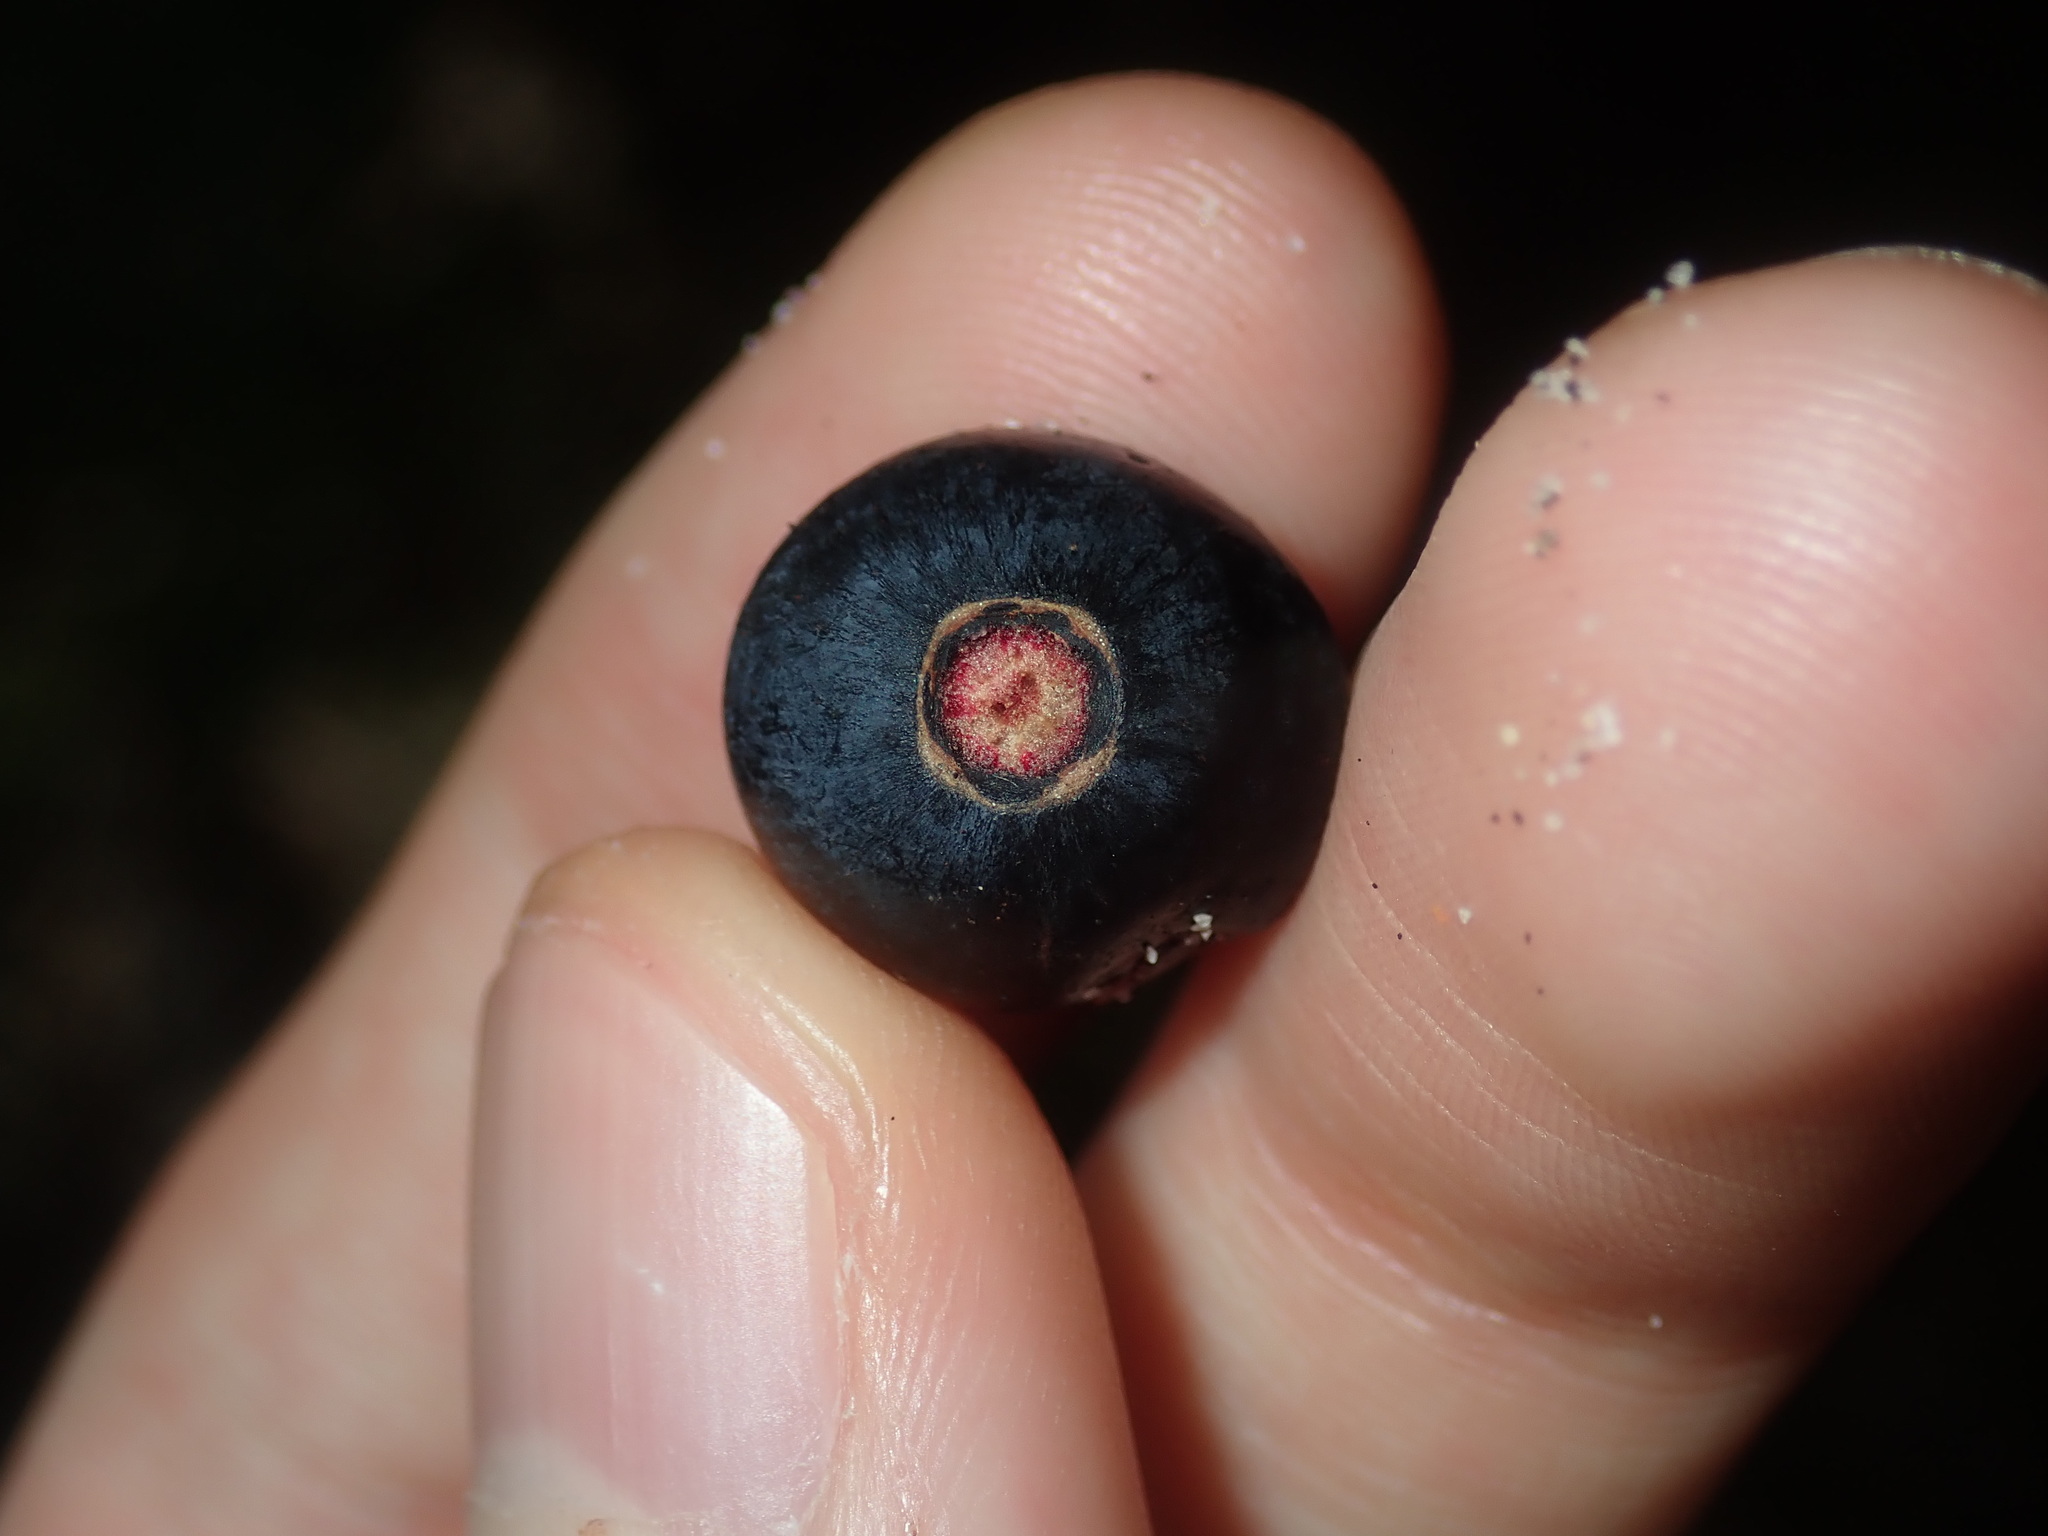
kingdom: Plantae
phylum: Tracheophyta
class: Liliopsida
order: Liliales
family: Smilacaceae
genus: Smilax
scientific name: Smilax australis
